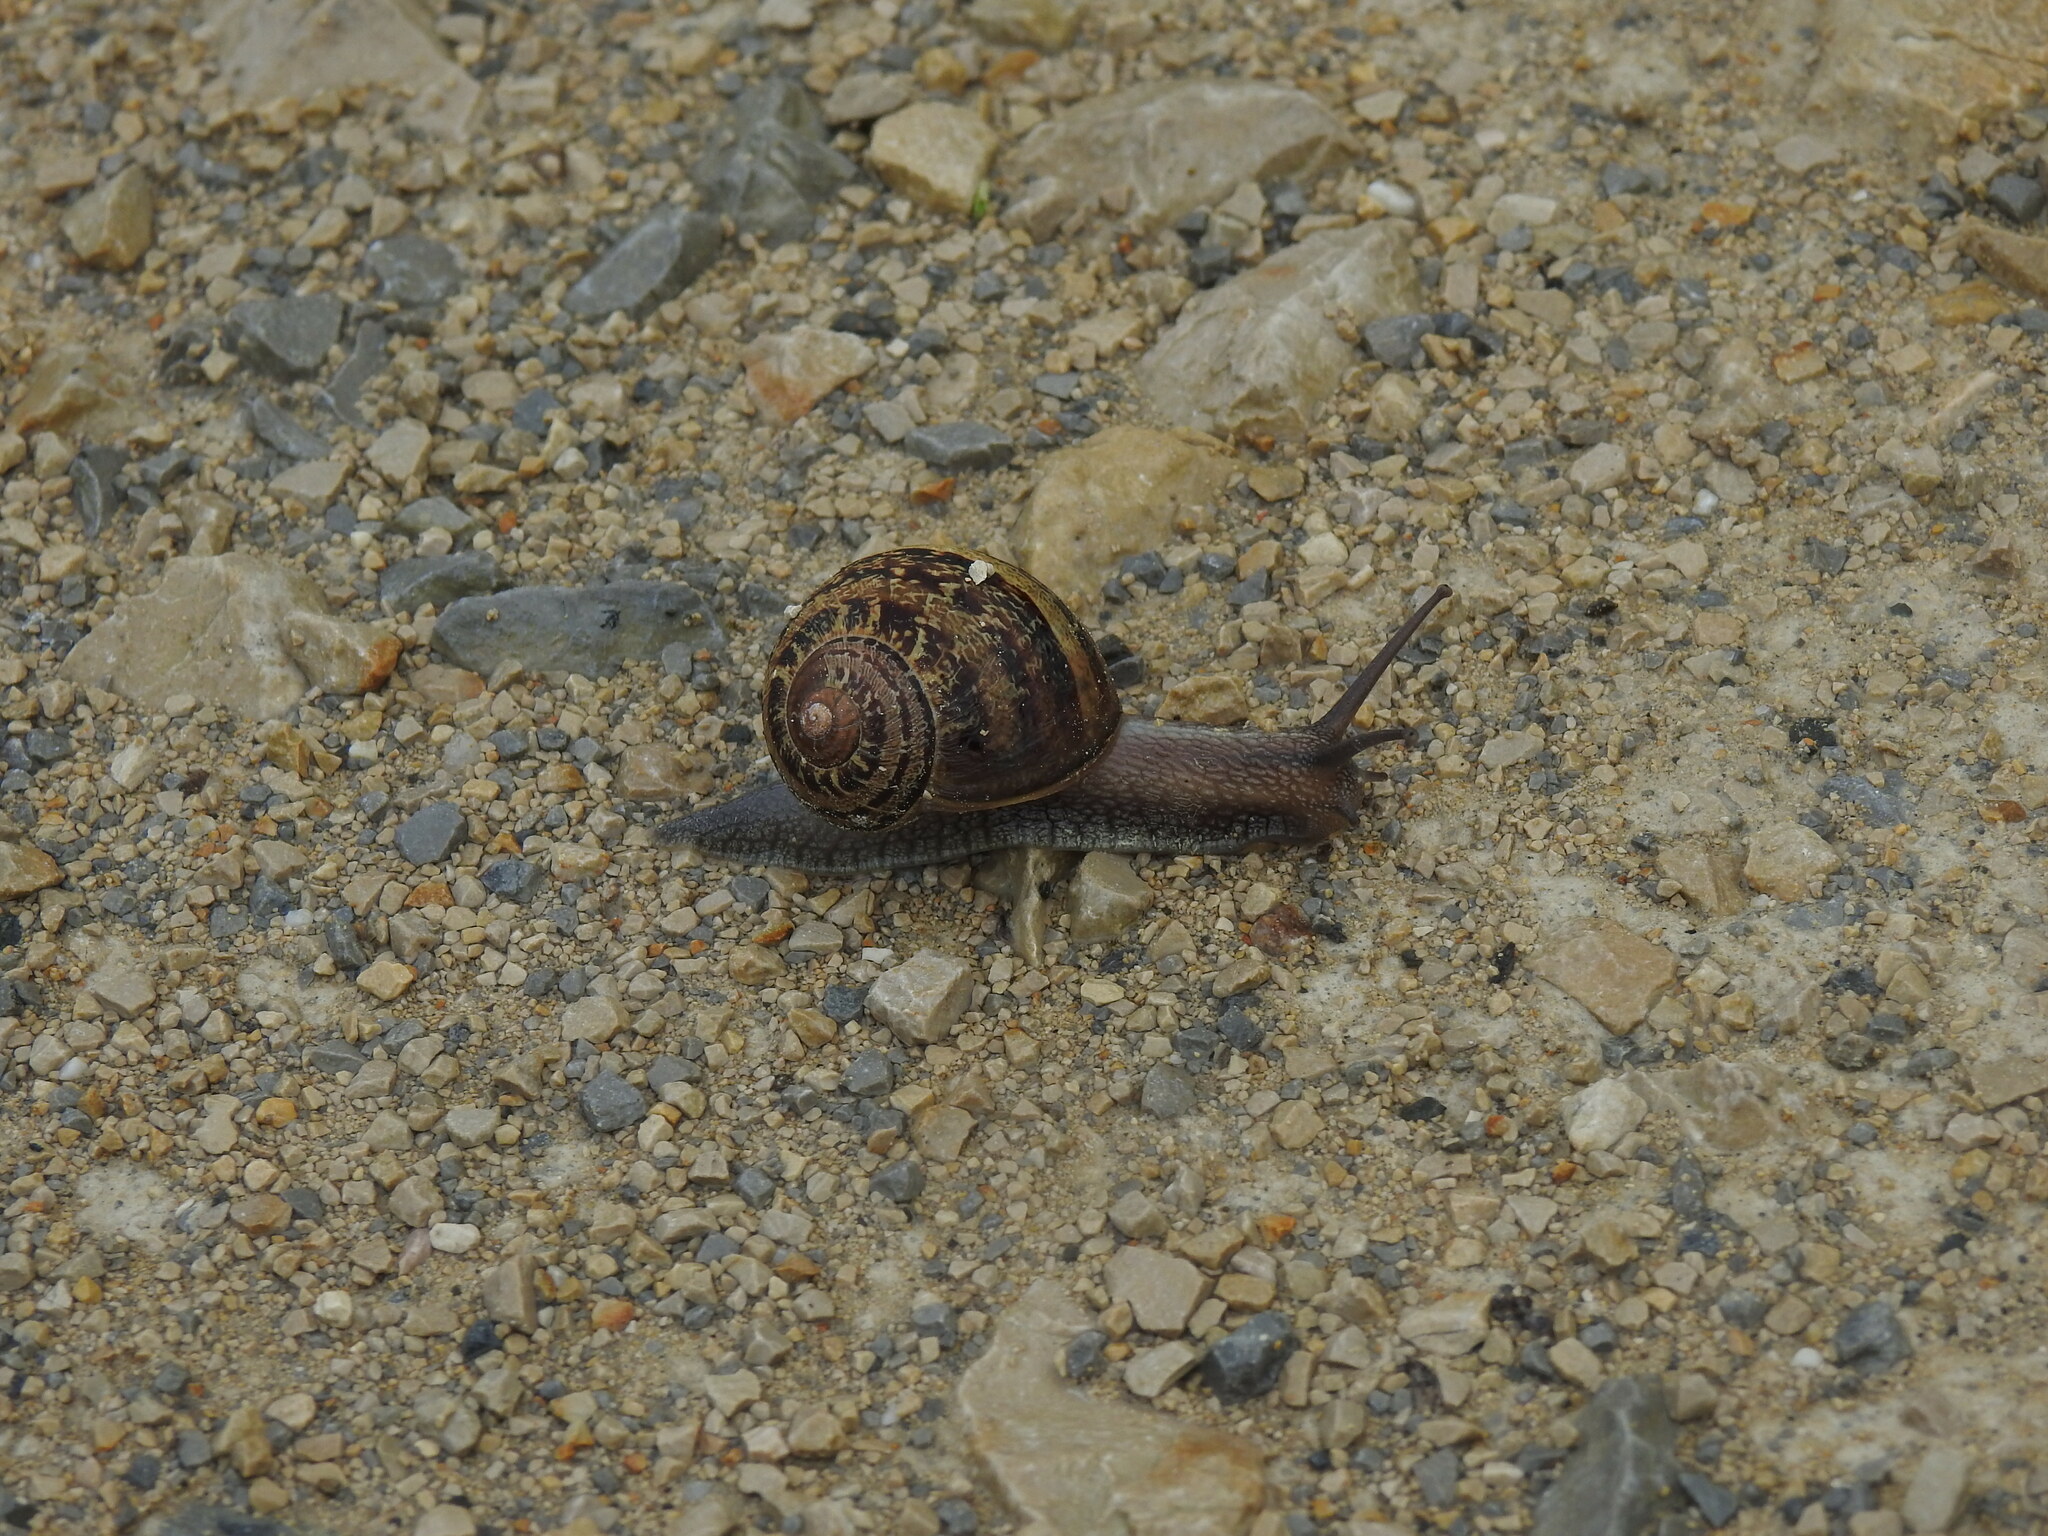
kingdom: Animalia
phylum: Mollusca
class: Gastropoda
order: Stylommatophora
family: Helicidae
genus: Cornu
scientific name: Cornu aspersum
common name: Brown garden snail
